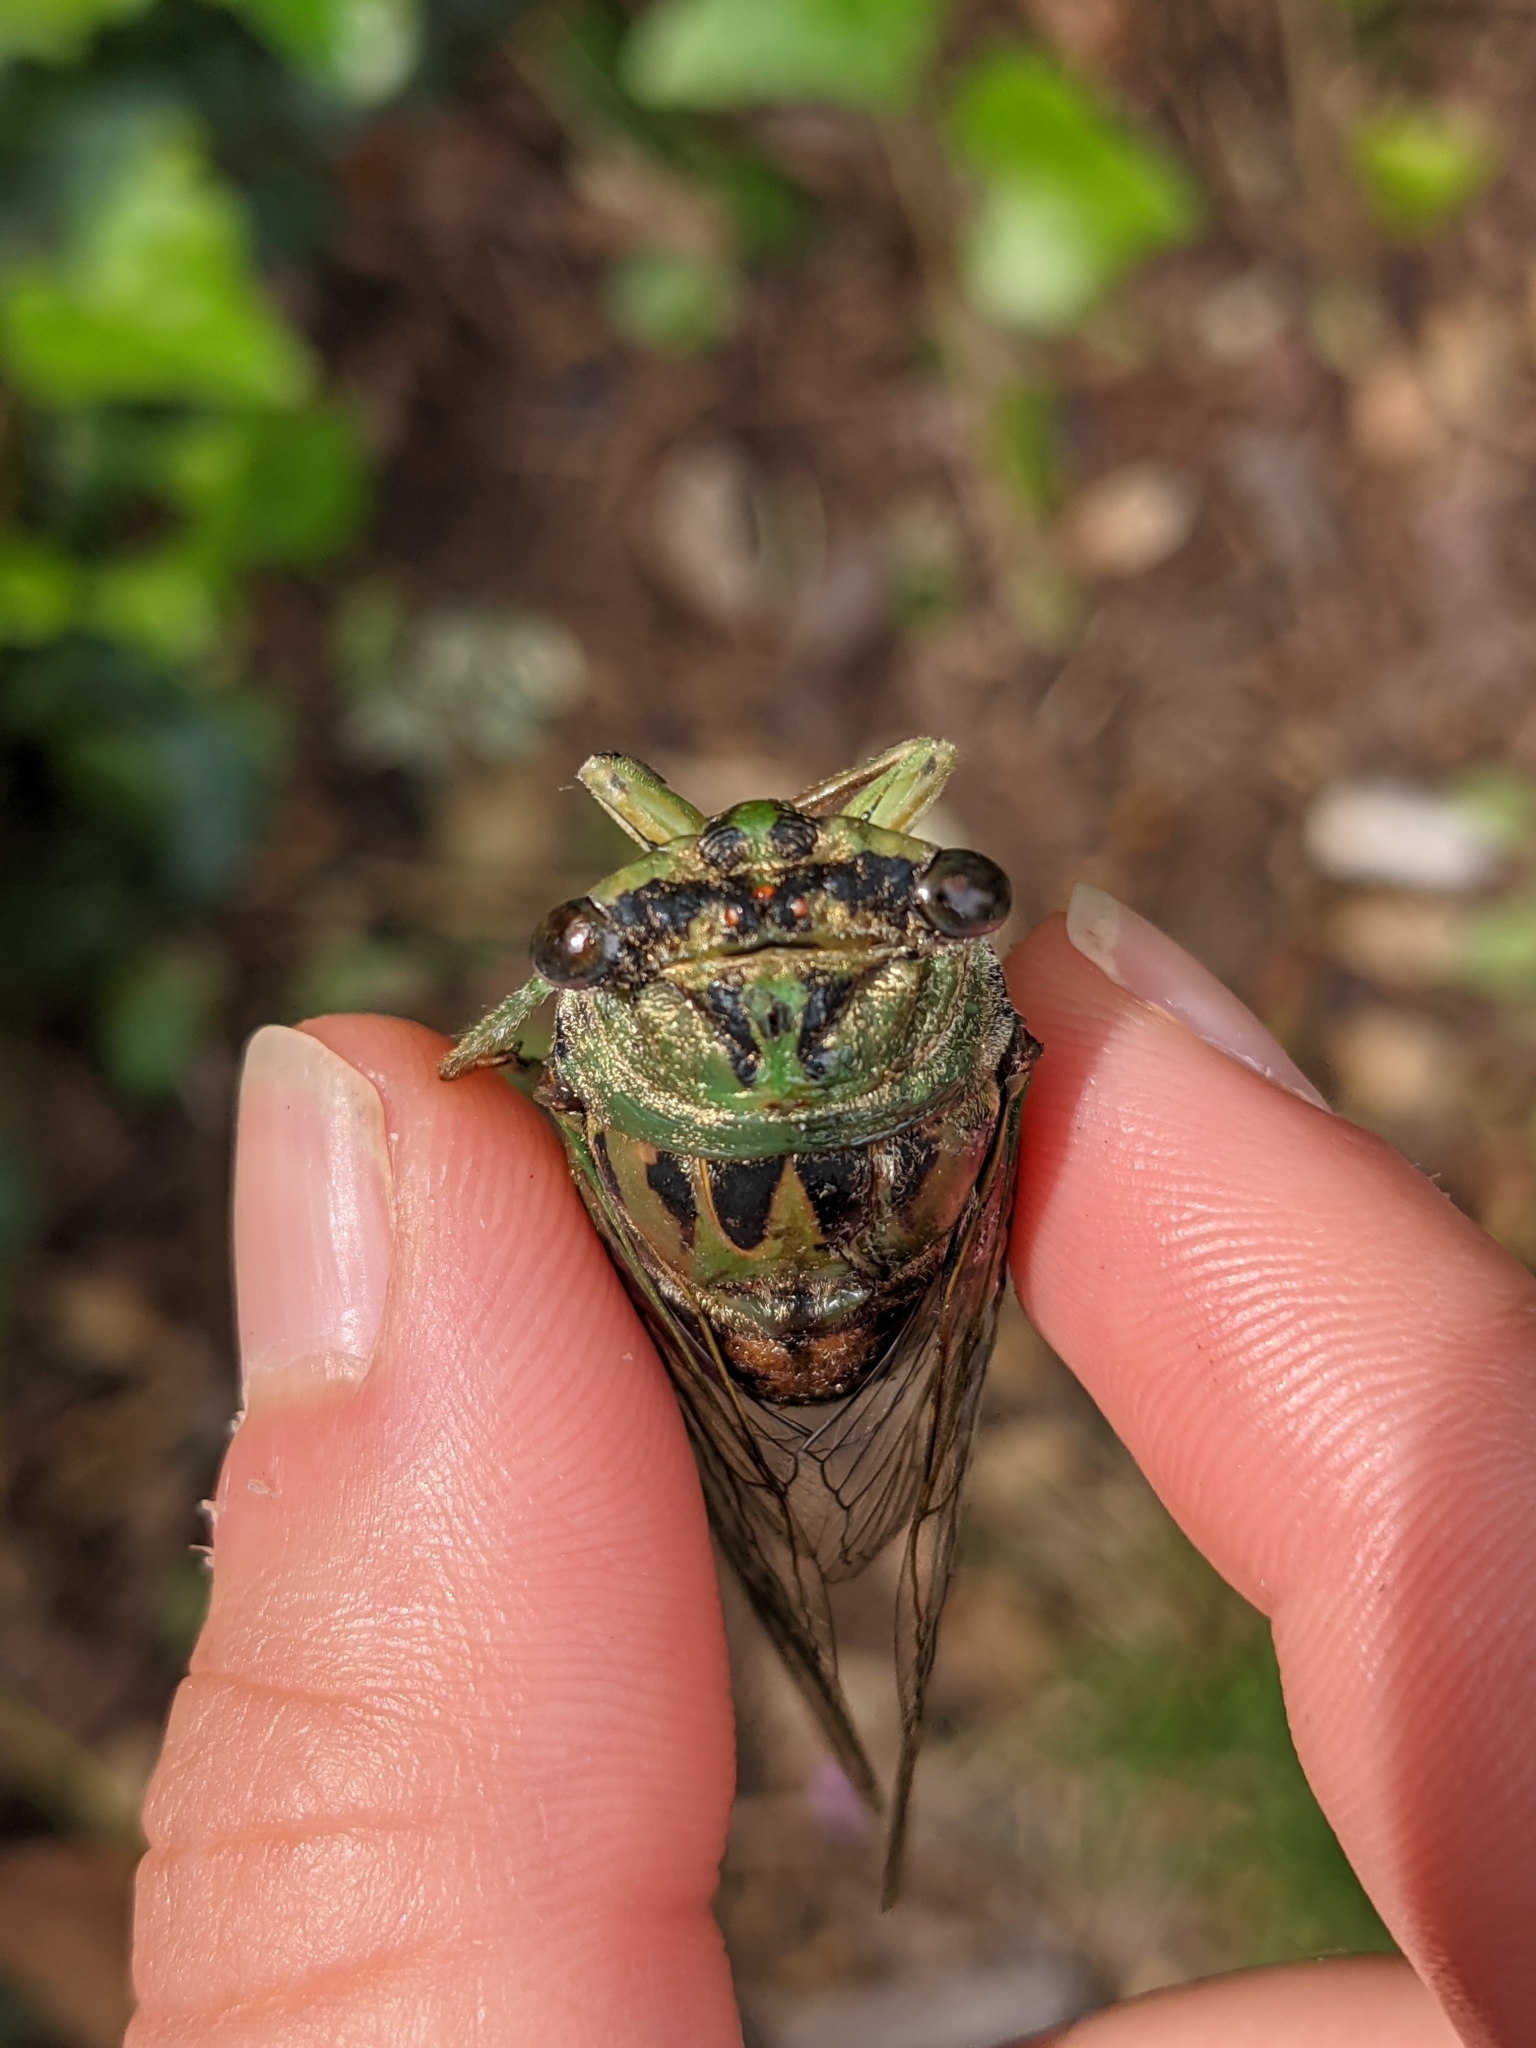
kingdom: Animalia
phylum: Arthropoda
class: Insecta
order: Hemiptera
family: Cicadidae
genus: Neotibicen
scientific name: Neotibicen winnemanna
